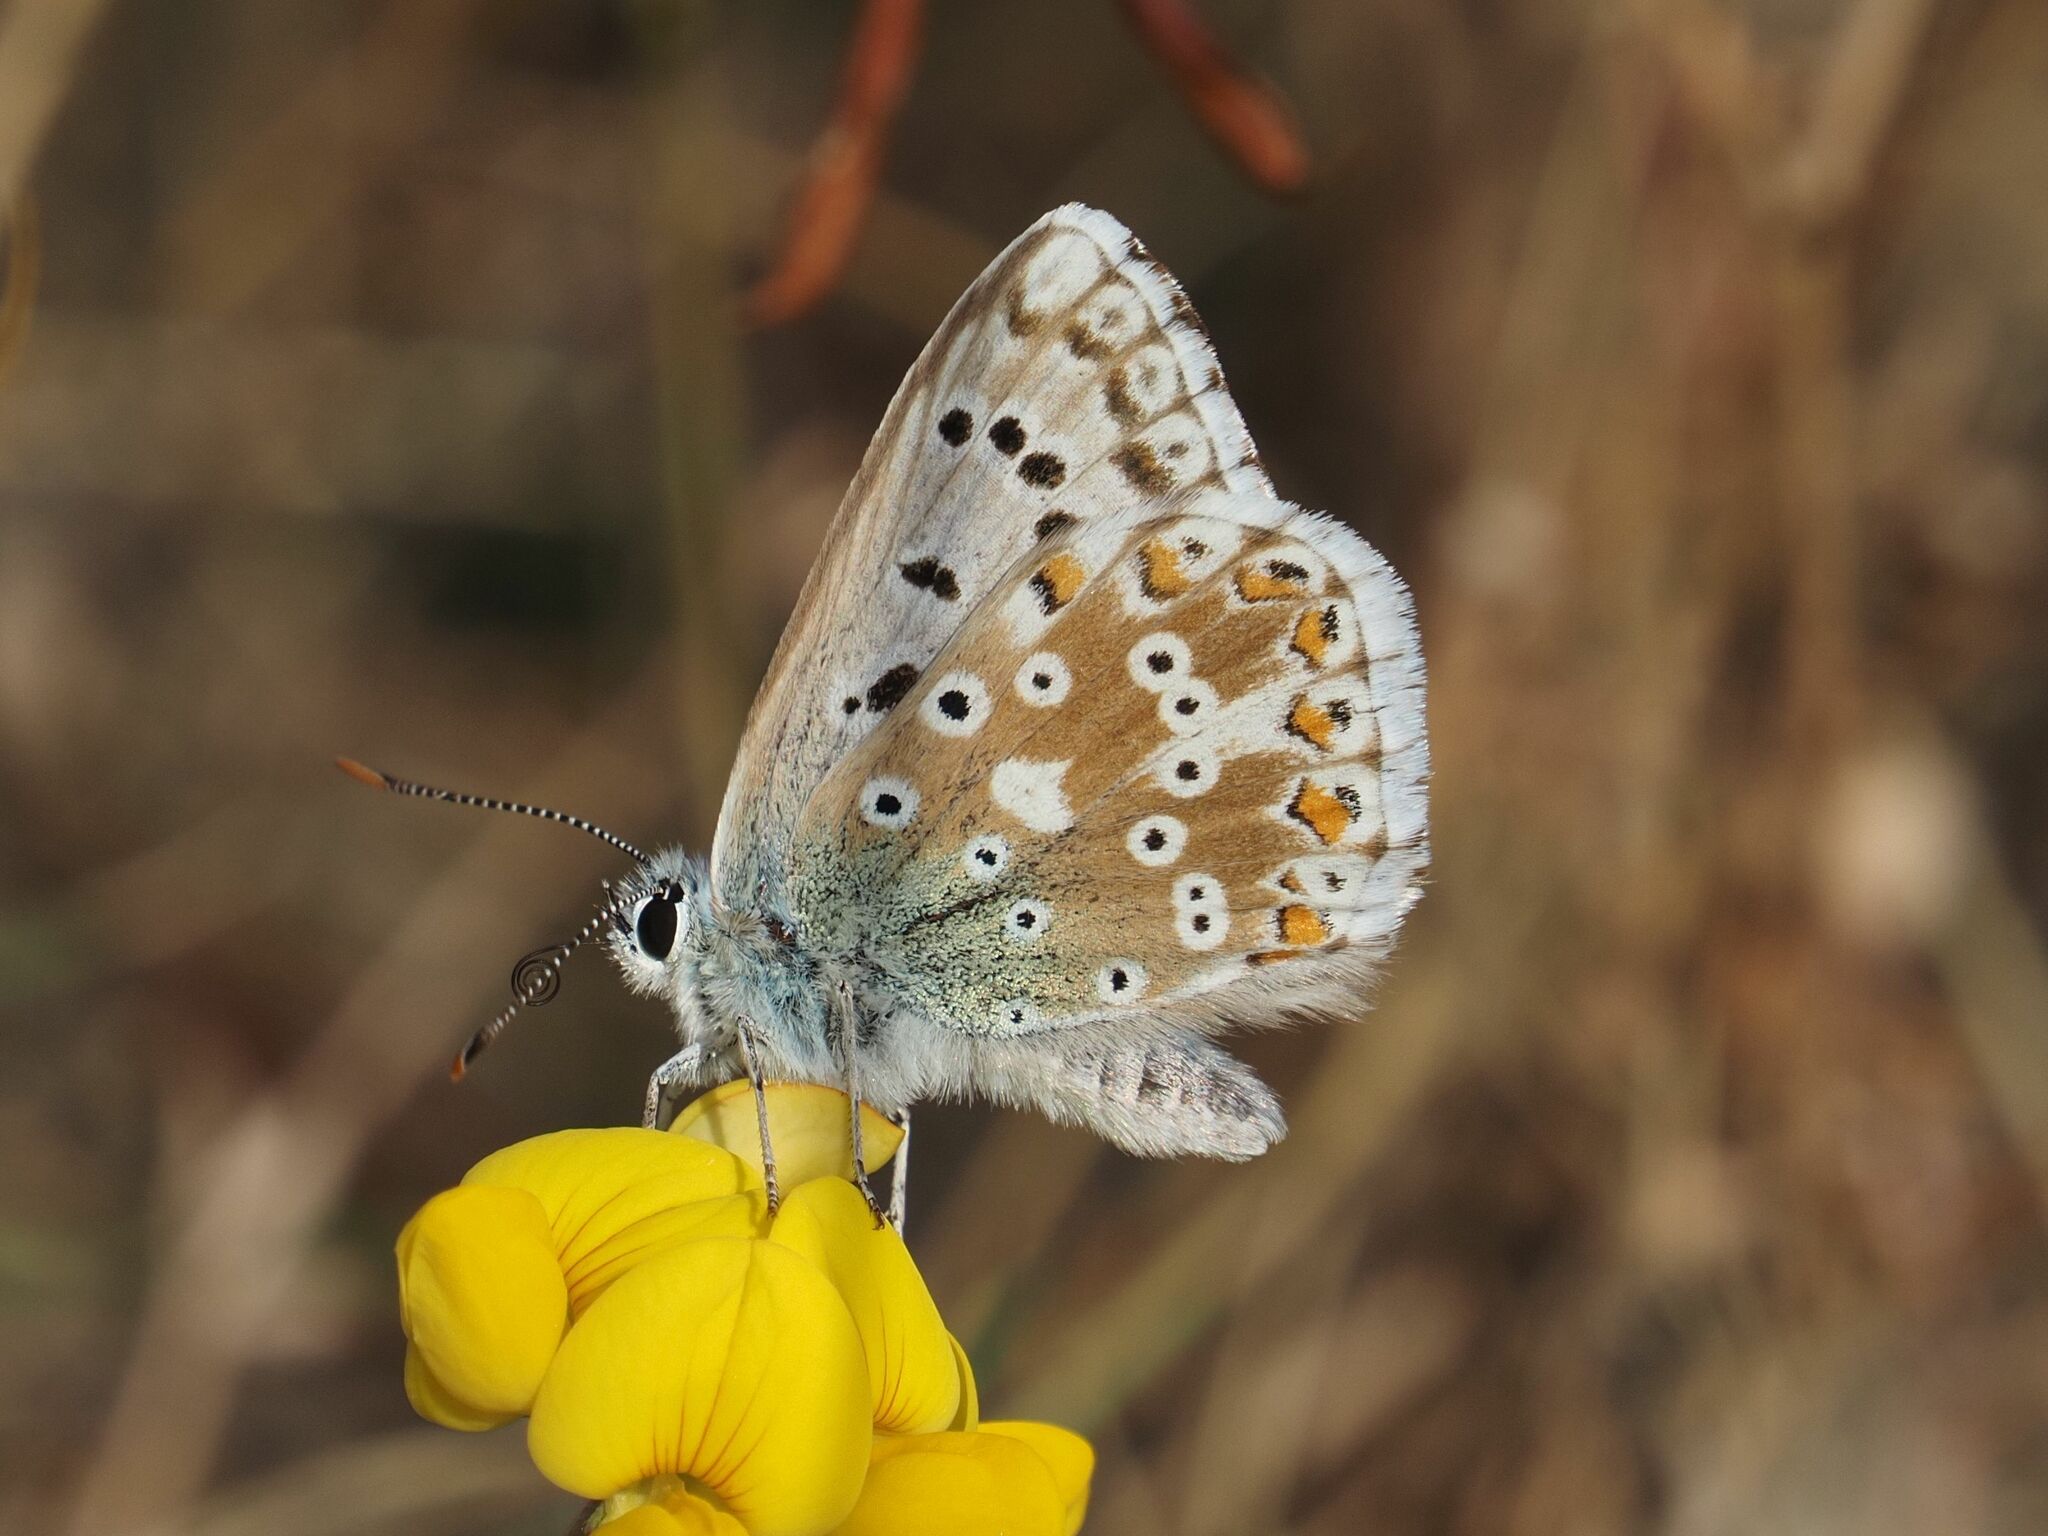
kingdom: Animalia
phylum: Arthropoda
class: Insecta
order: Lepidoptera
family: Lycaenidae
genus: Lysandra
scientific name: Lysandra coridon
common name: Chalkhill blue
